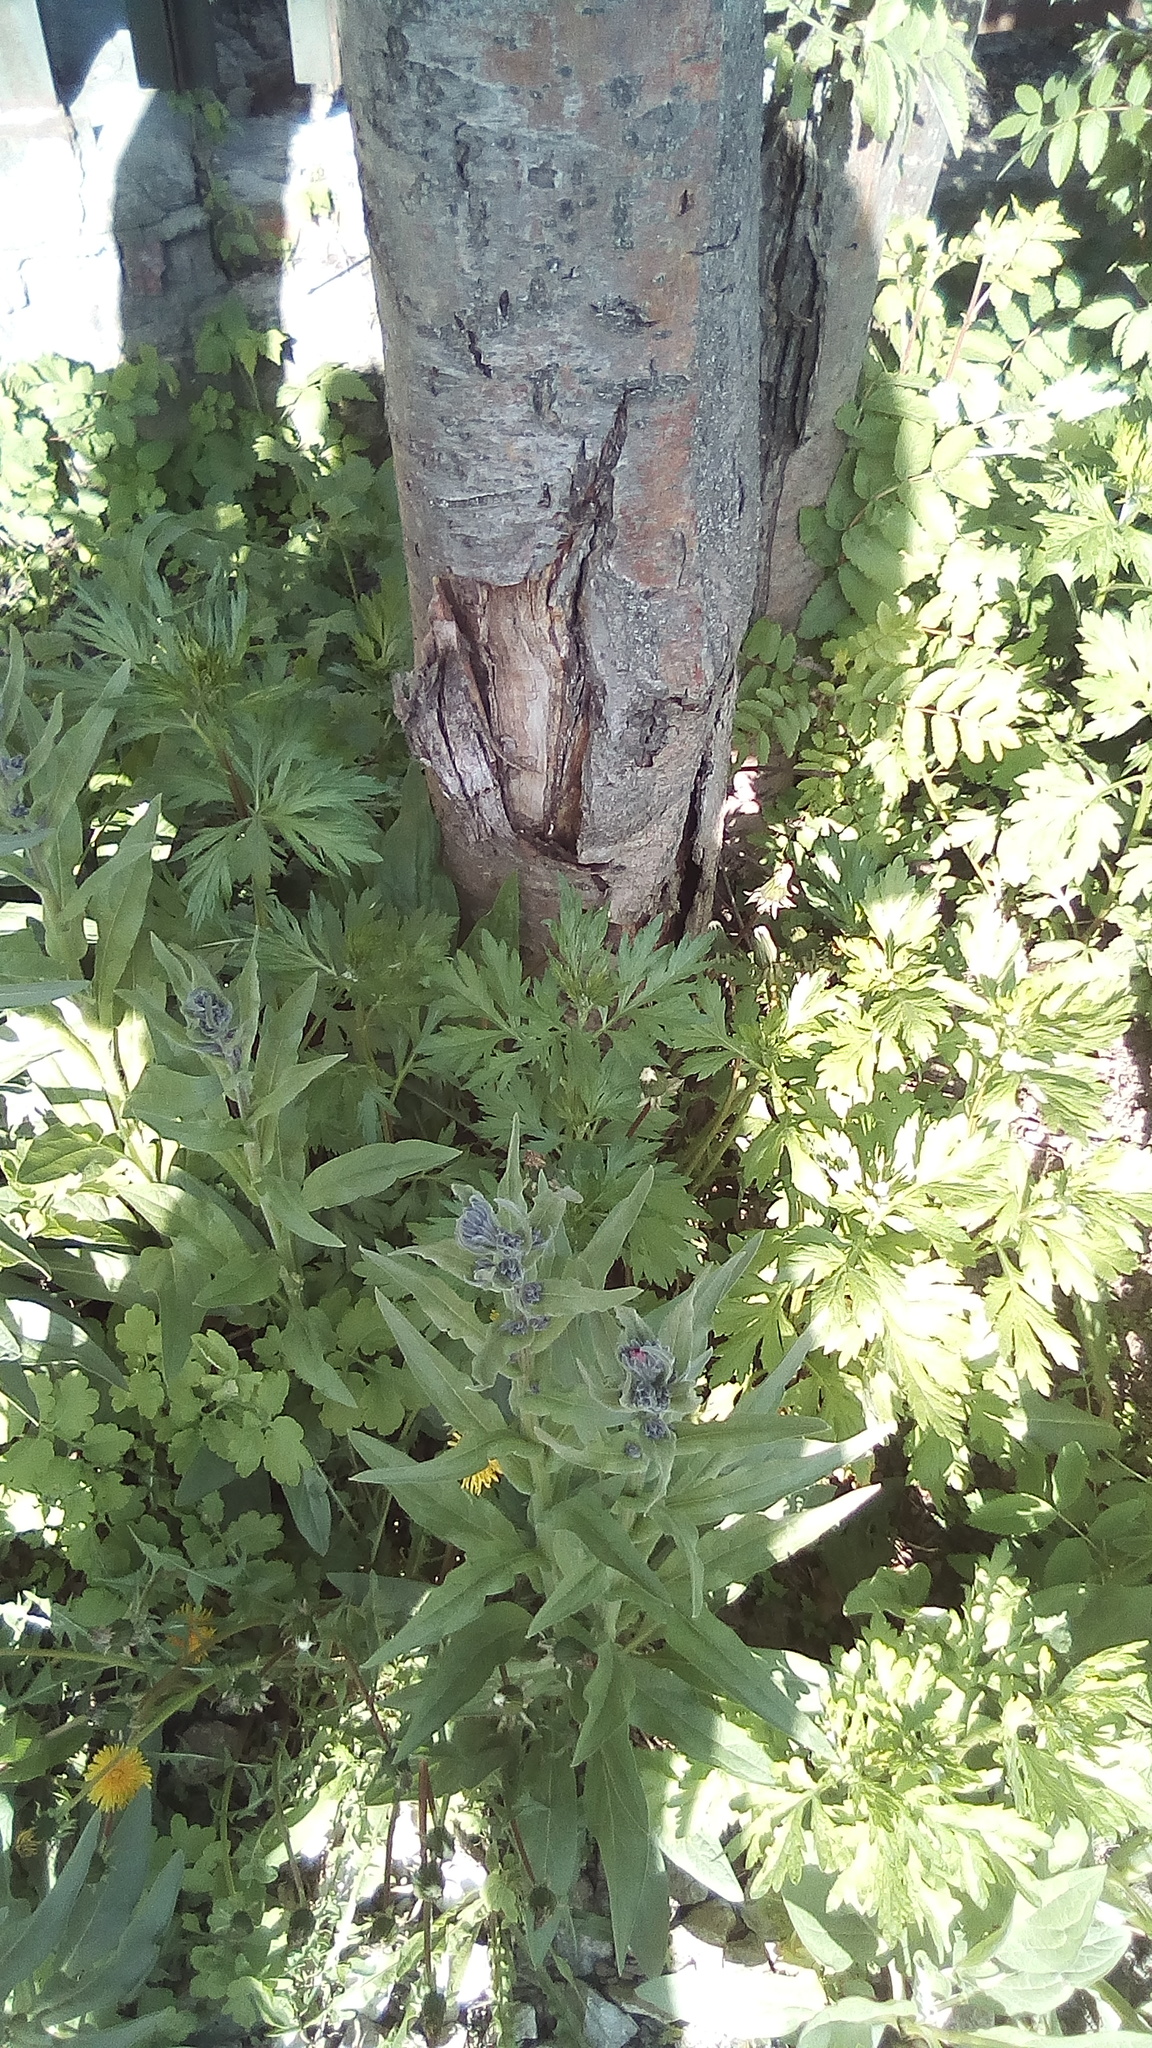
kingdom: Plantae
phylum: Tracheophyta
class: Magnoliopsida
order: Boraginales
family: Boraginaceae
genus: Cynoglossum
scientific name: Cynoglossum officinale
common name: Hound's-tongue
